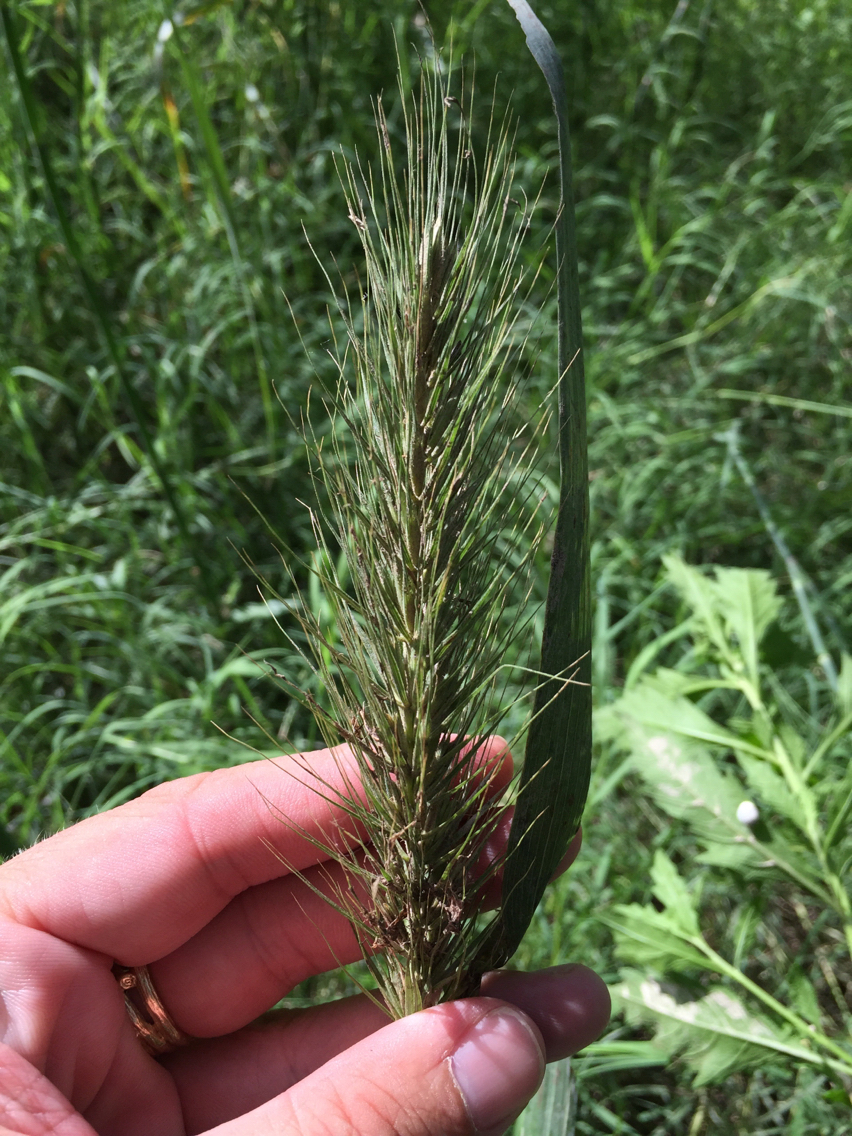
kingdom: Plantae
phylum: Tracheophyta
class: Liliopsida
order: Poales
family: Poaceae
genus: Elymus
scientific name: Elymus canadensis
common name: Canada wild rye
